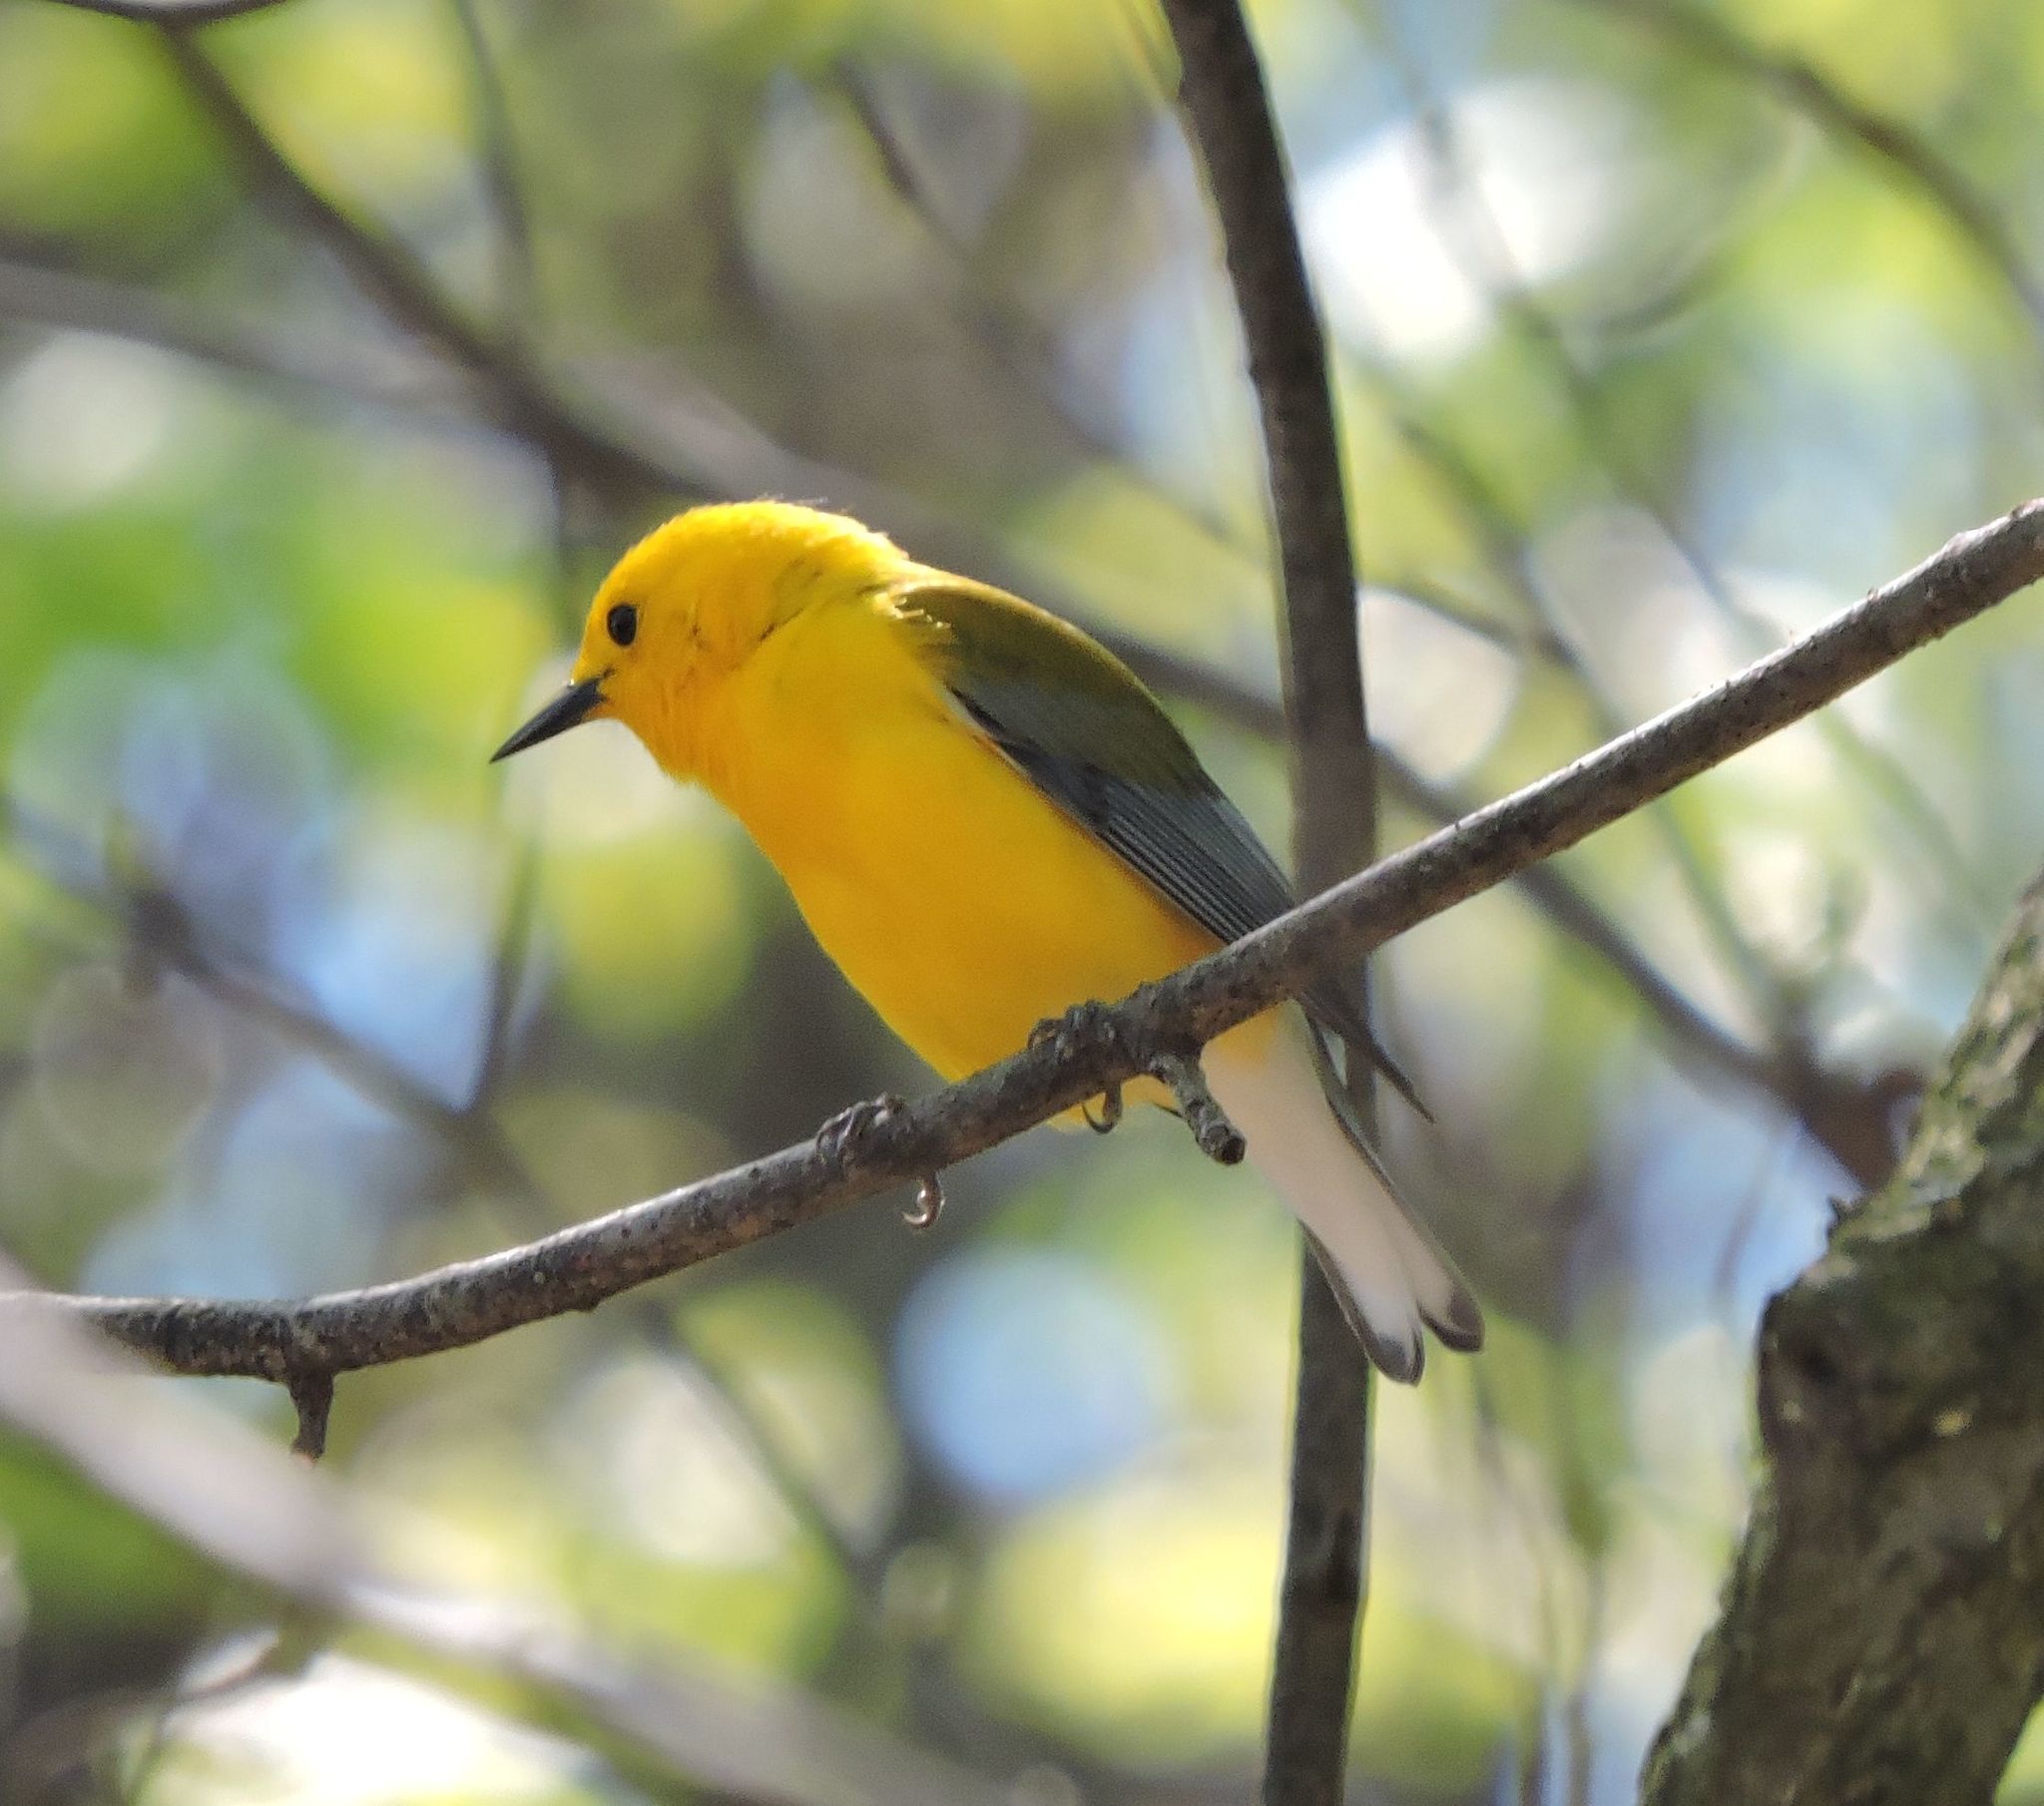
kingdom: Animalia
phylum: Chordata
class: Aves
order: Passeriformes
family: Parulidae
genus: Protonotaria
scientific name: Protonotaria citrea
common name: Prothonotary warbler
